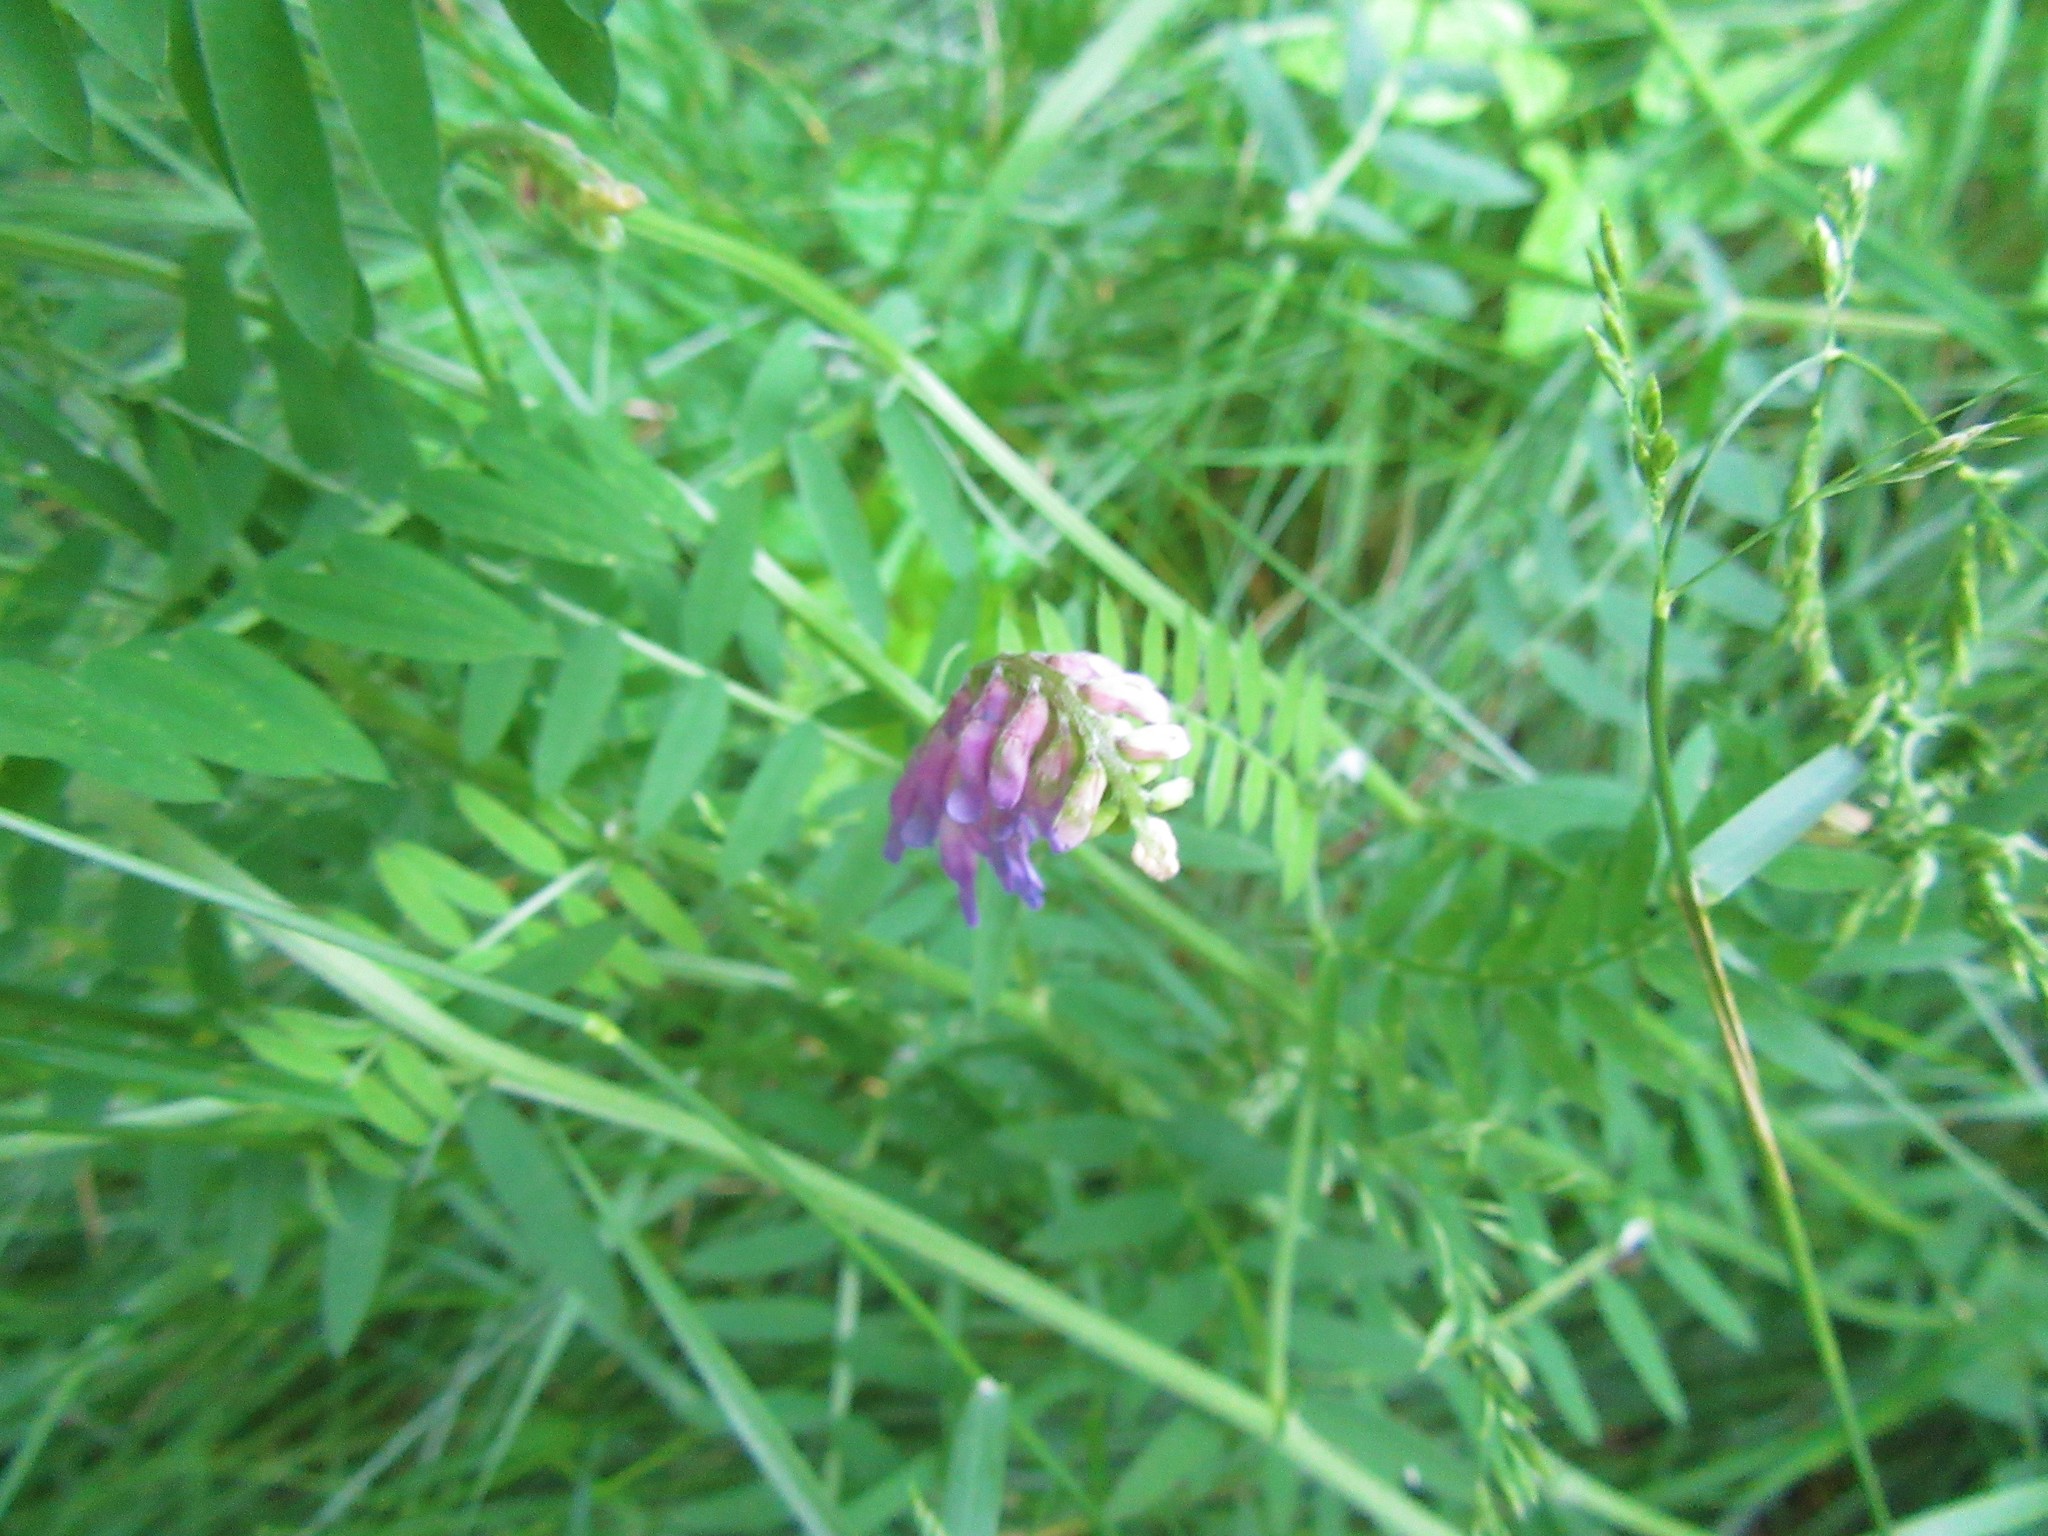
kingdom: Plantae
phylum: Tracheophyta
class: Magnoliopsida
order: Fabales
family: Fabaceae
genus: Vicia
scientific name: Vicia cracca
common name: Bird vetch
